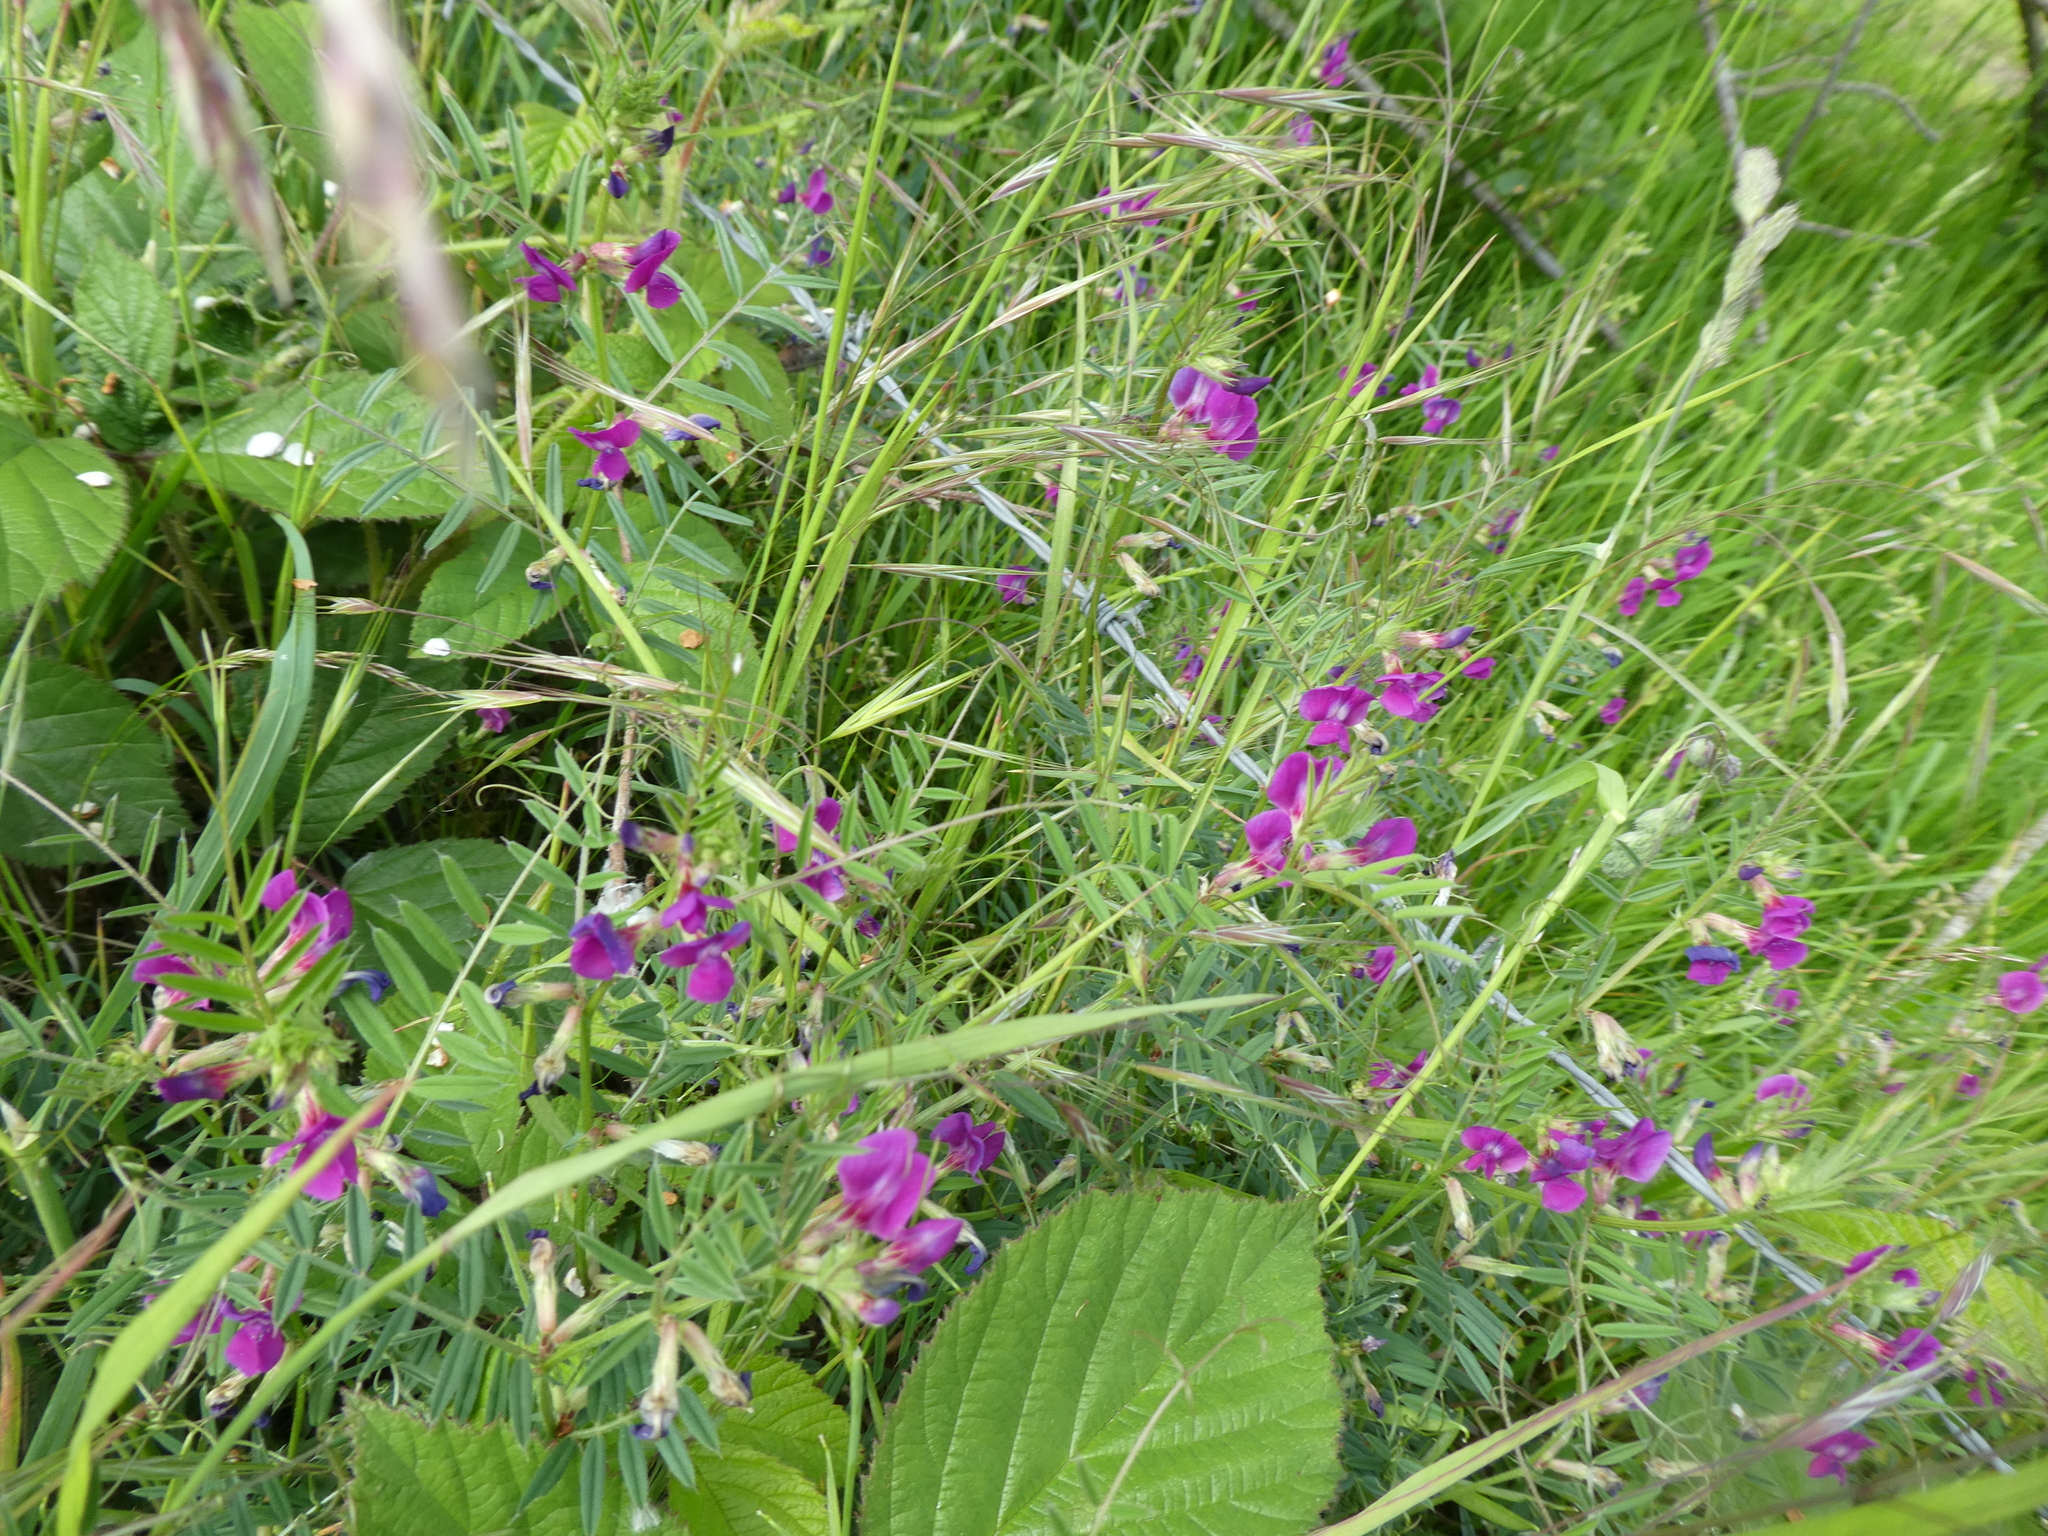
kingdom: Plantae
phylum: Tracheophyta
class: Magnoliopsida
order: Fabales
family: Fabaceae
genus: Vicia
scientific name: Vicia sativa
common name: Garden vetch
